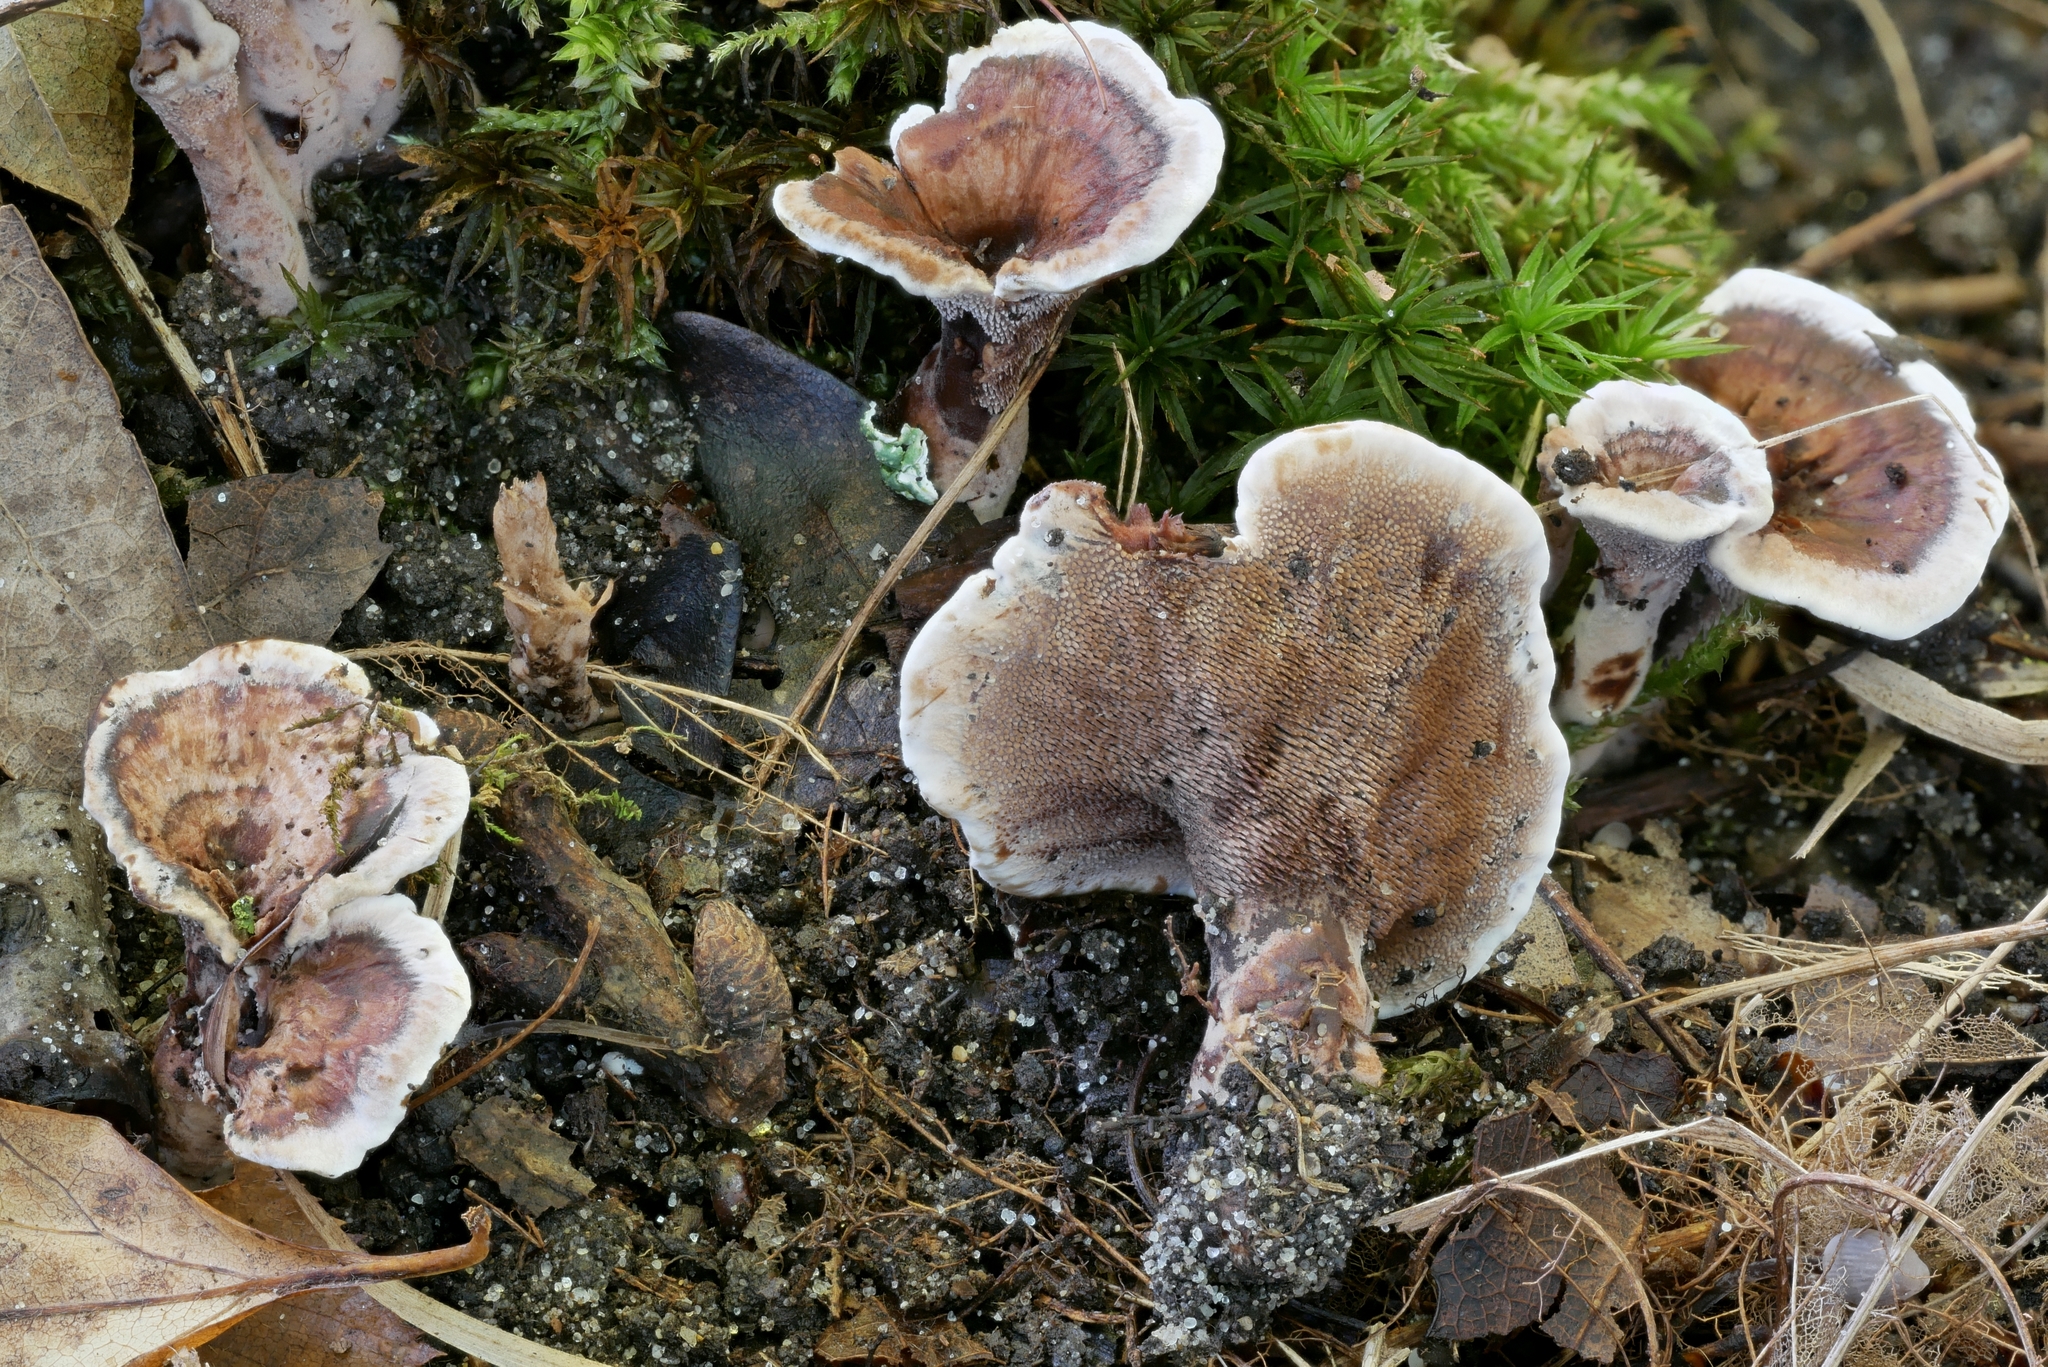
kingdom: Fungi
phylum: Basidiomycota
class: Agaricomycetes
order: Thelephorales
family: Bankeraceae
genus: Hydnellum
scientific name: Hydnellum concrescens
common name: Zoned tooth
